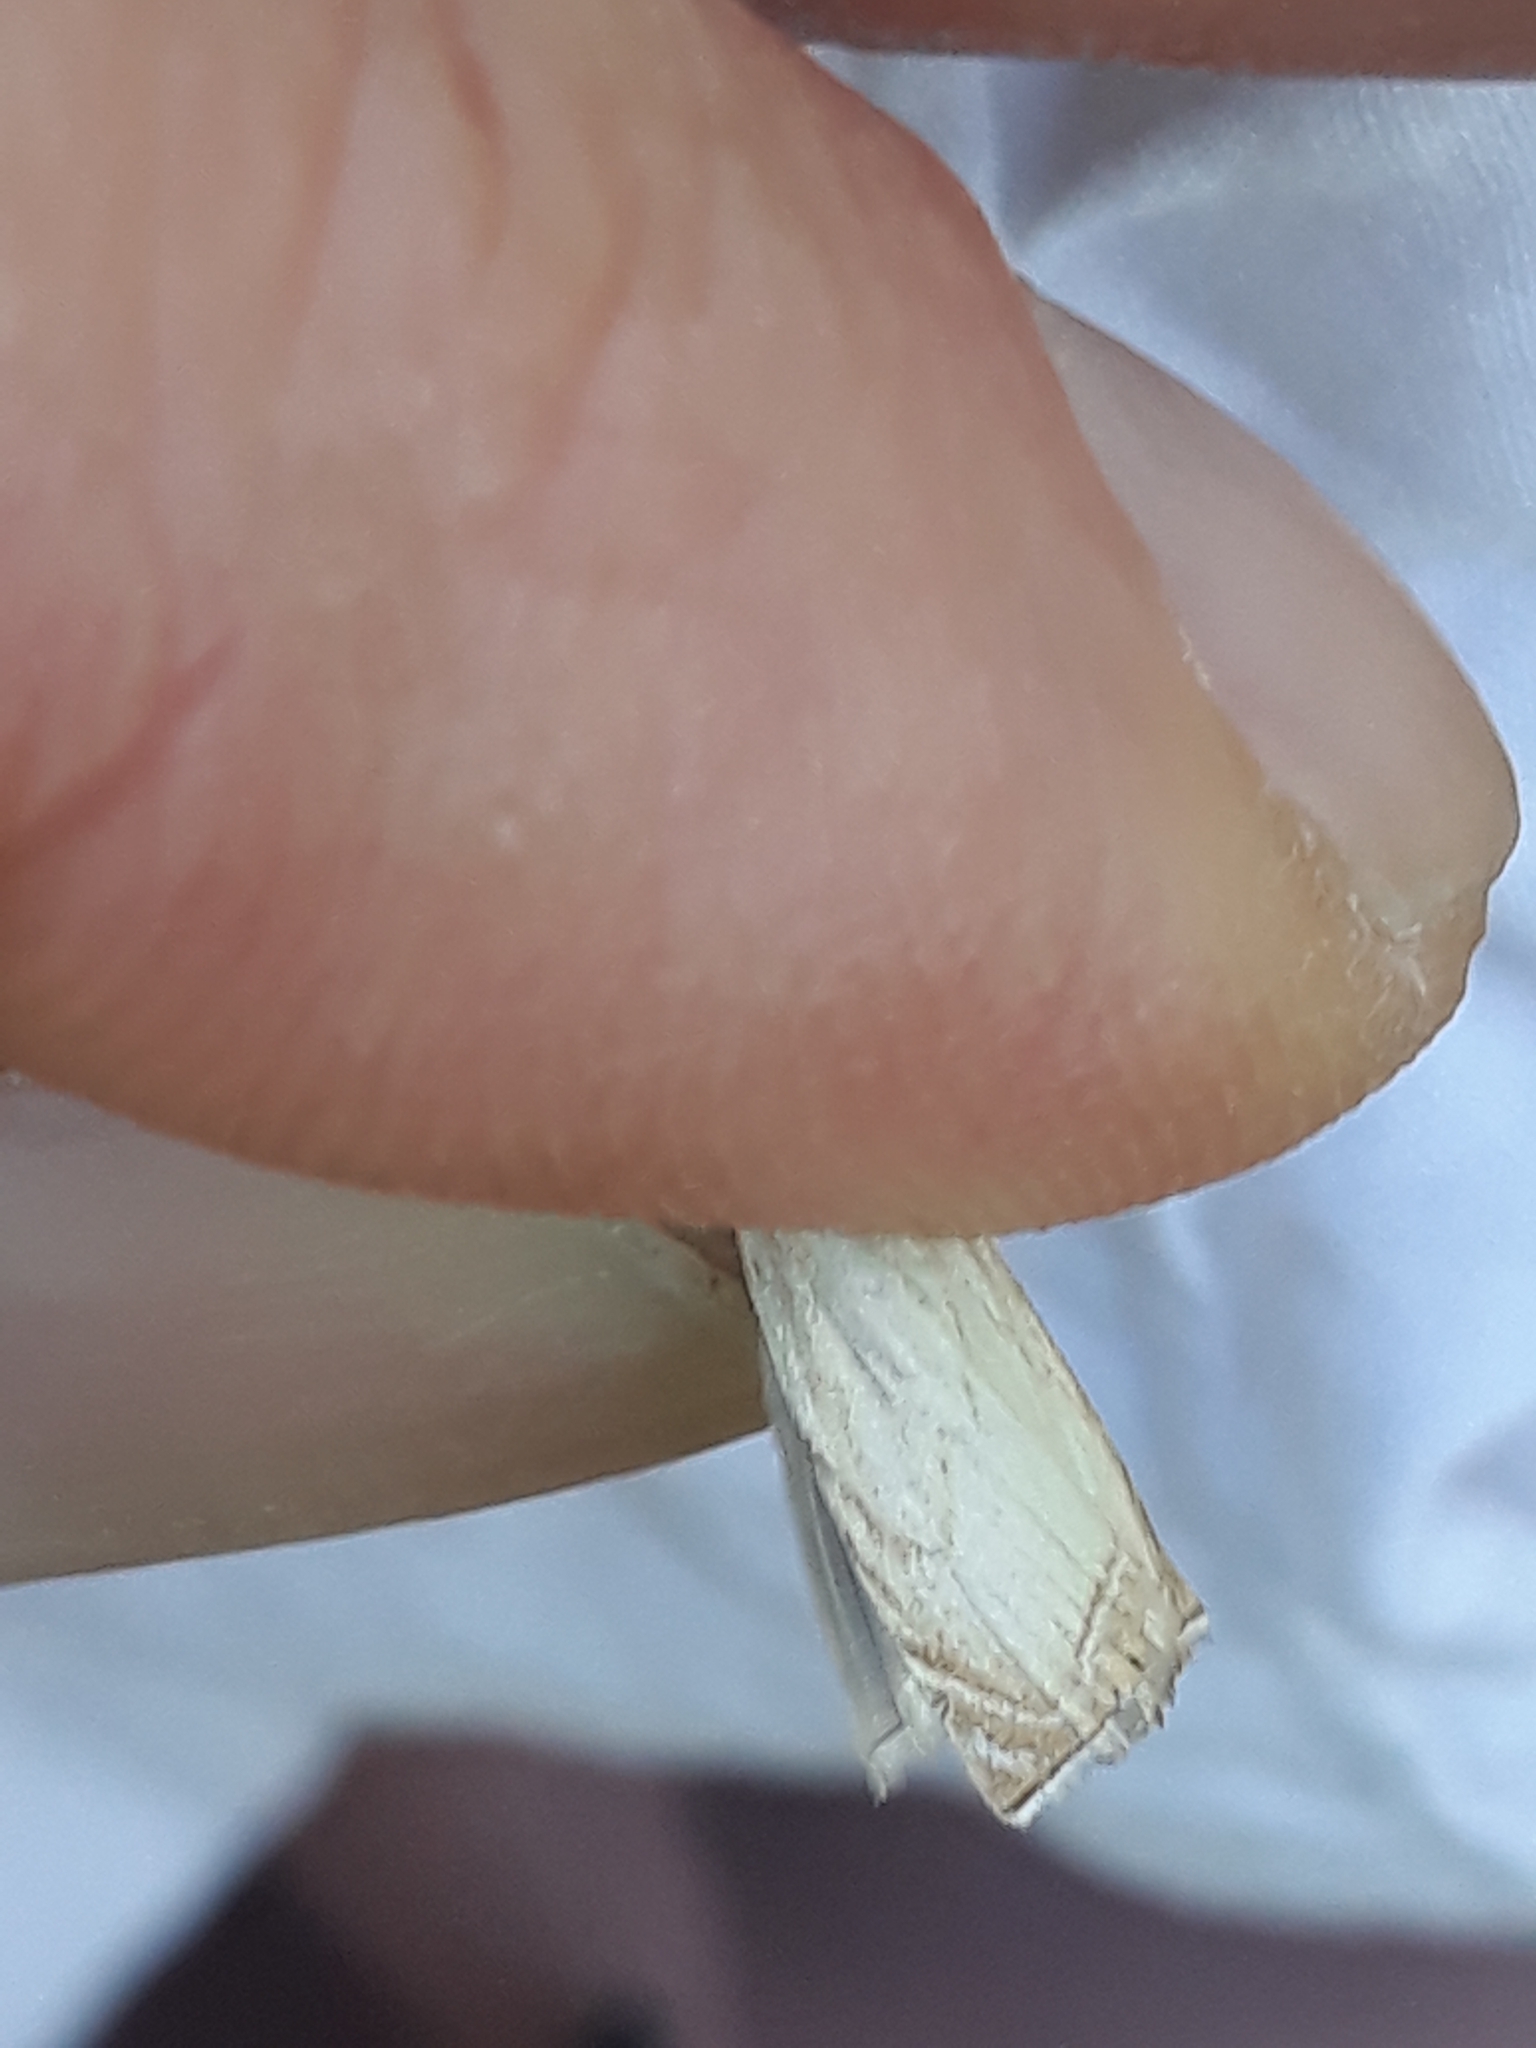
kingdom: Animalia
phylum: Arthropoda
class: Insecta
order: Lepidoptera
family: Crambidae
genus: Chrysoteuchia
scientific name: Chrysoteuchia culmella
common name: Garden grass-veneer
